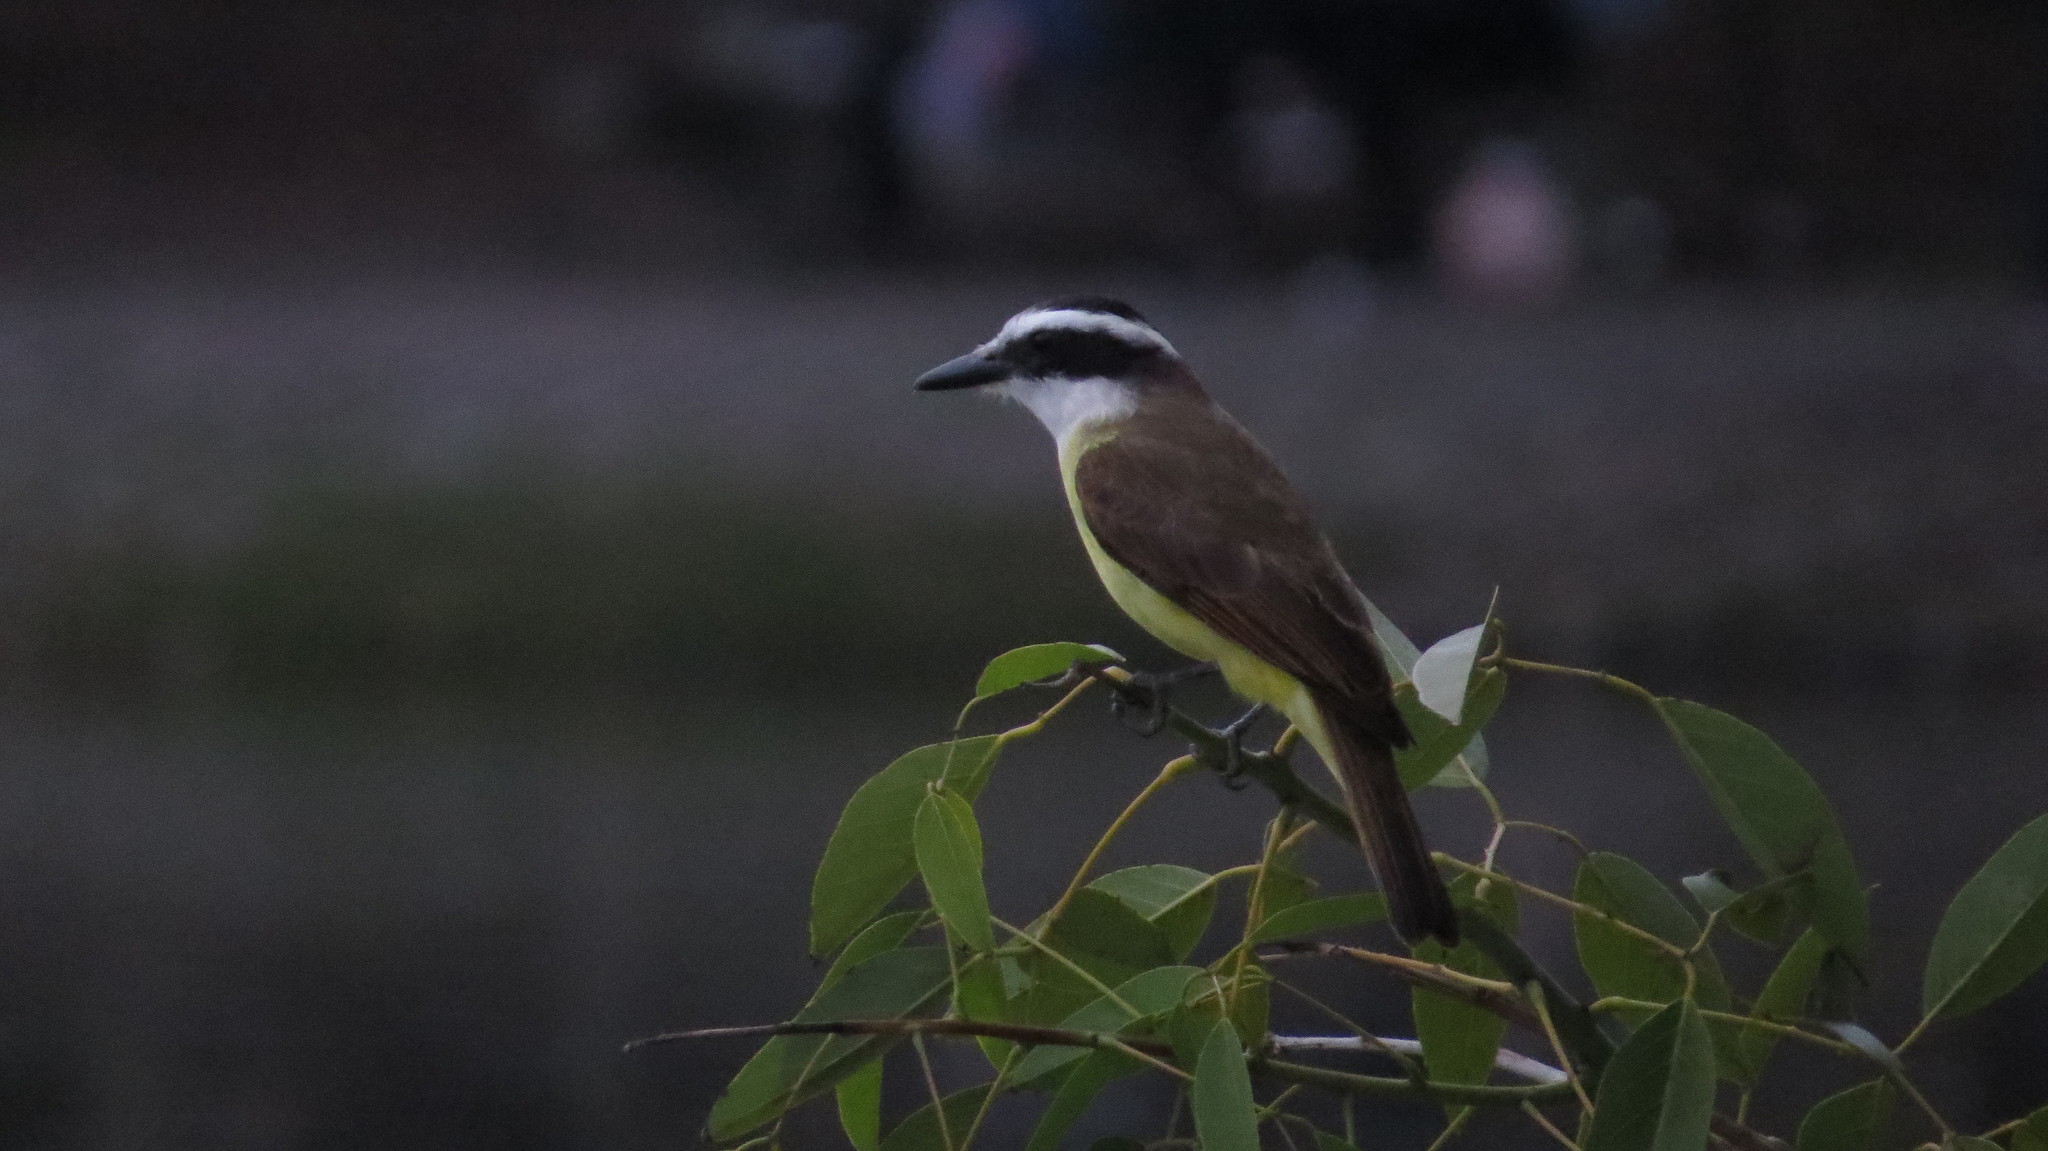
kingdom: Animalia
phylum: Chordata
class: Aves
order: Passeriformes
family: Tyrannidae
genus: Pitangus
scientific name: Pitangus sulphuratus
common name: Great kiskadee
